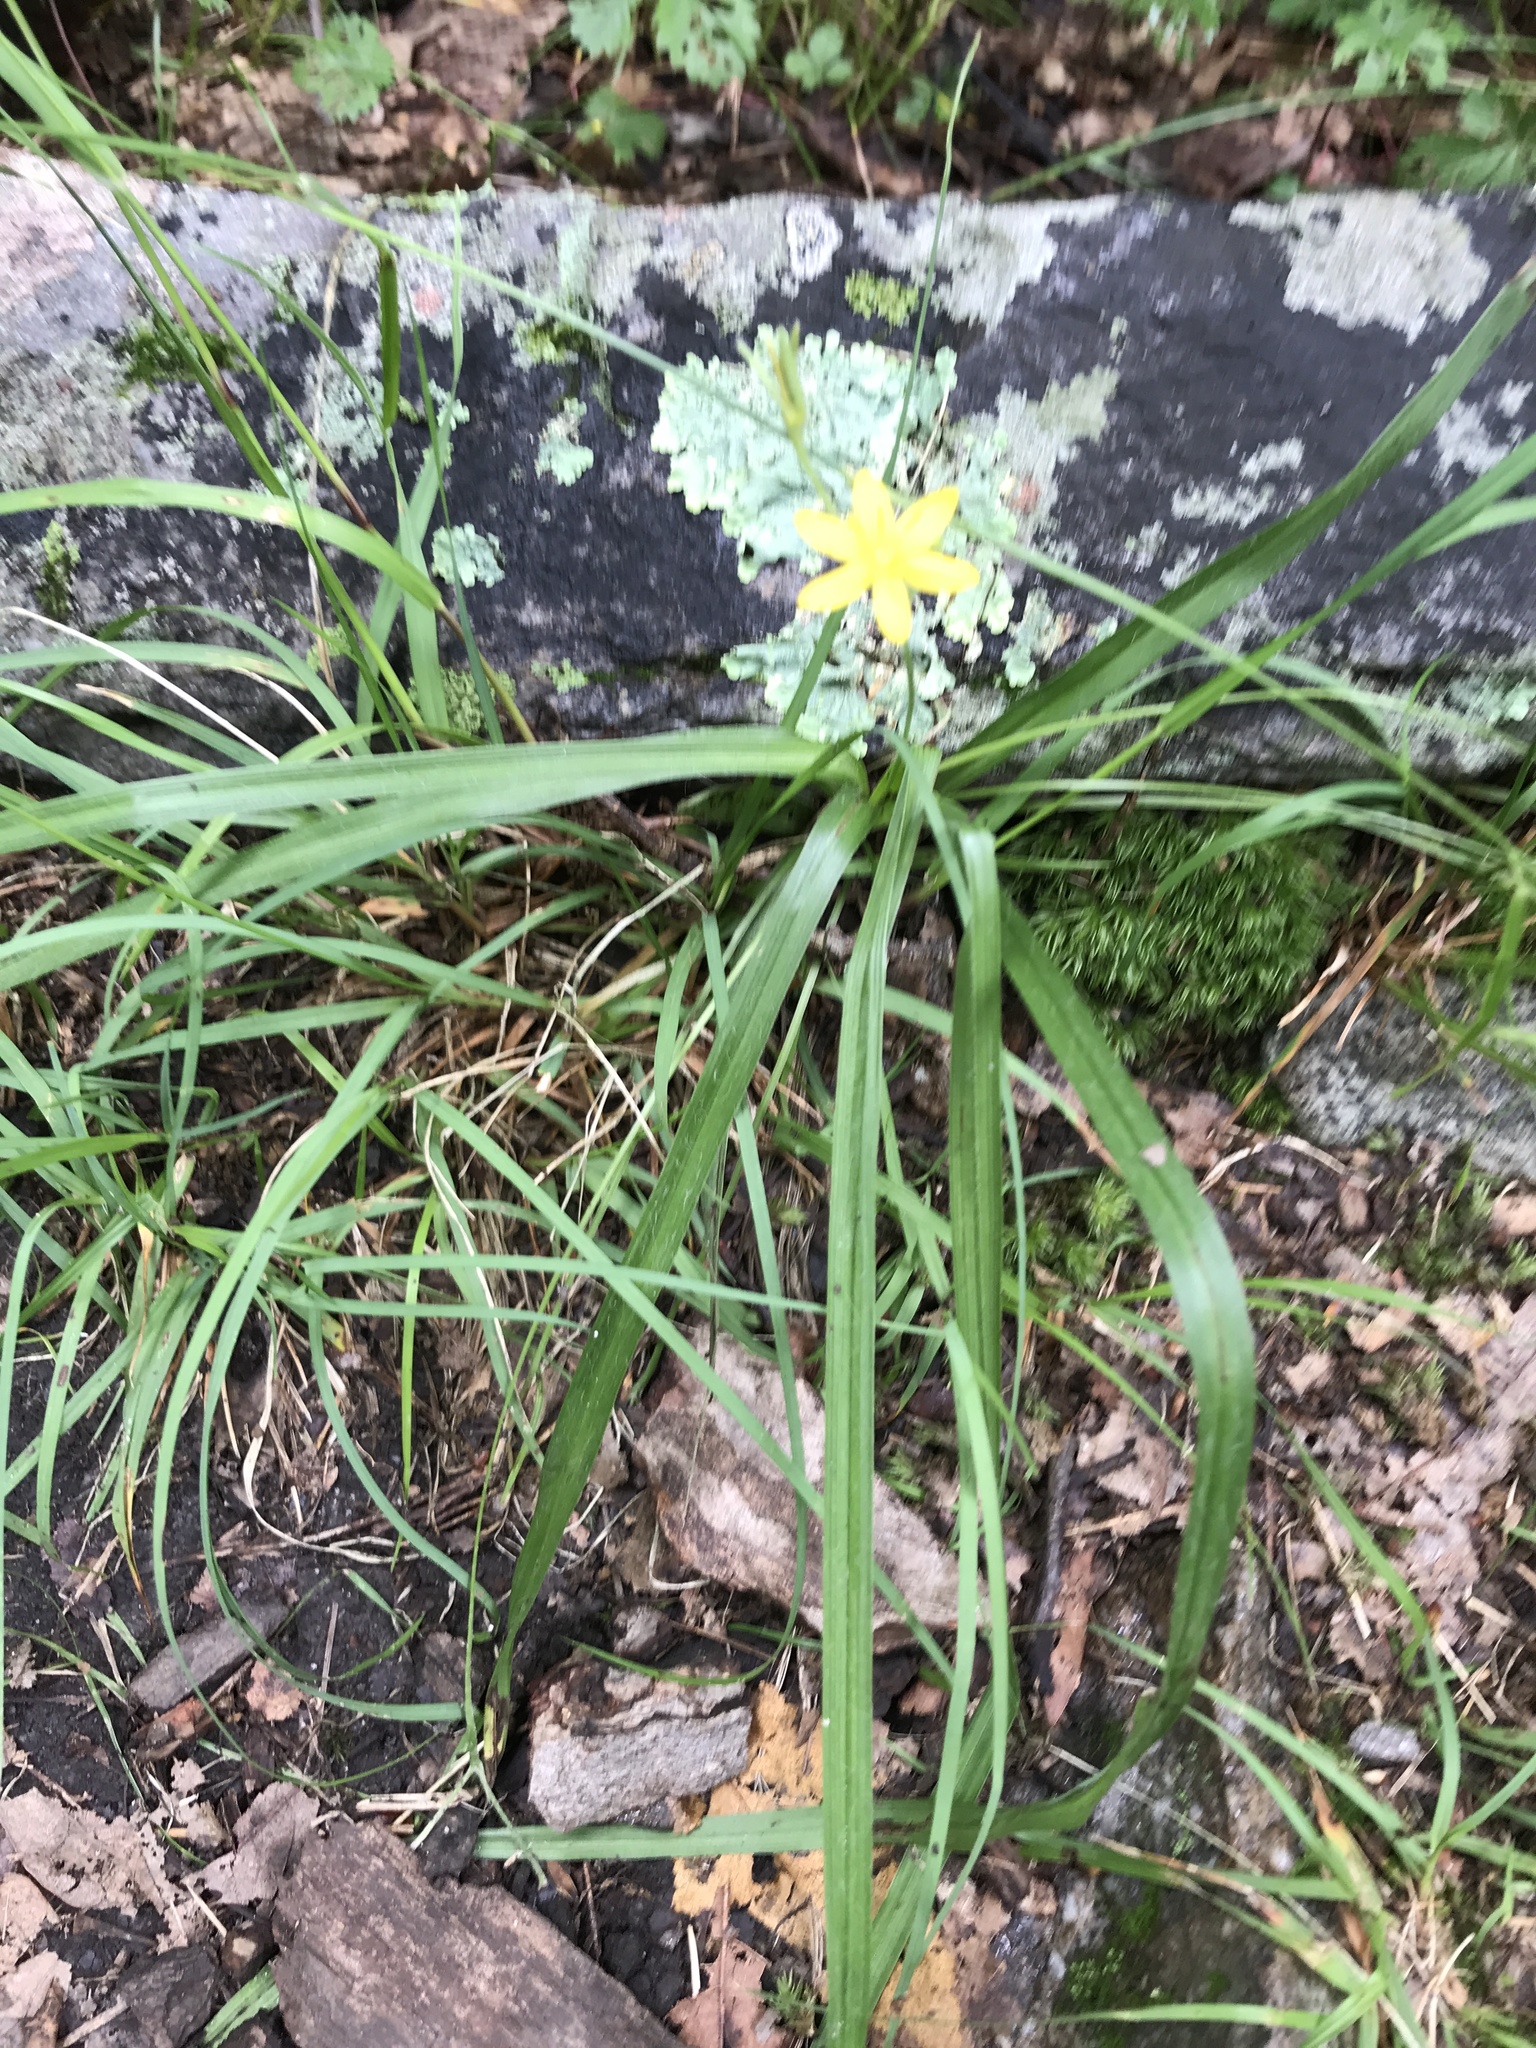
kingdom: Plantae
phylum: Tracheophyta
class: Liliopsida
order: Asparagales
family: Hypoxidaceae
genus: Hypoxis
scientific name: Hypoxis hirsuta
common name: Common goldstar
